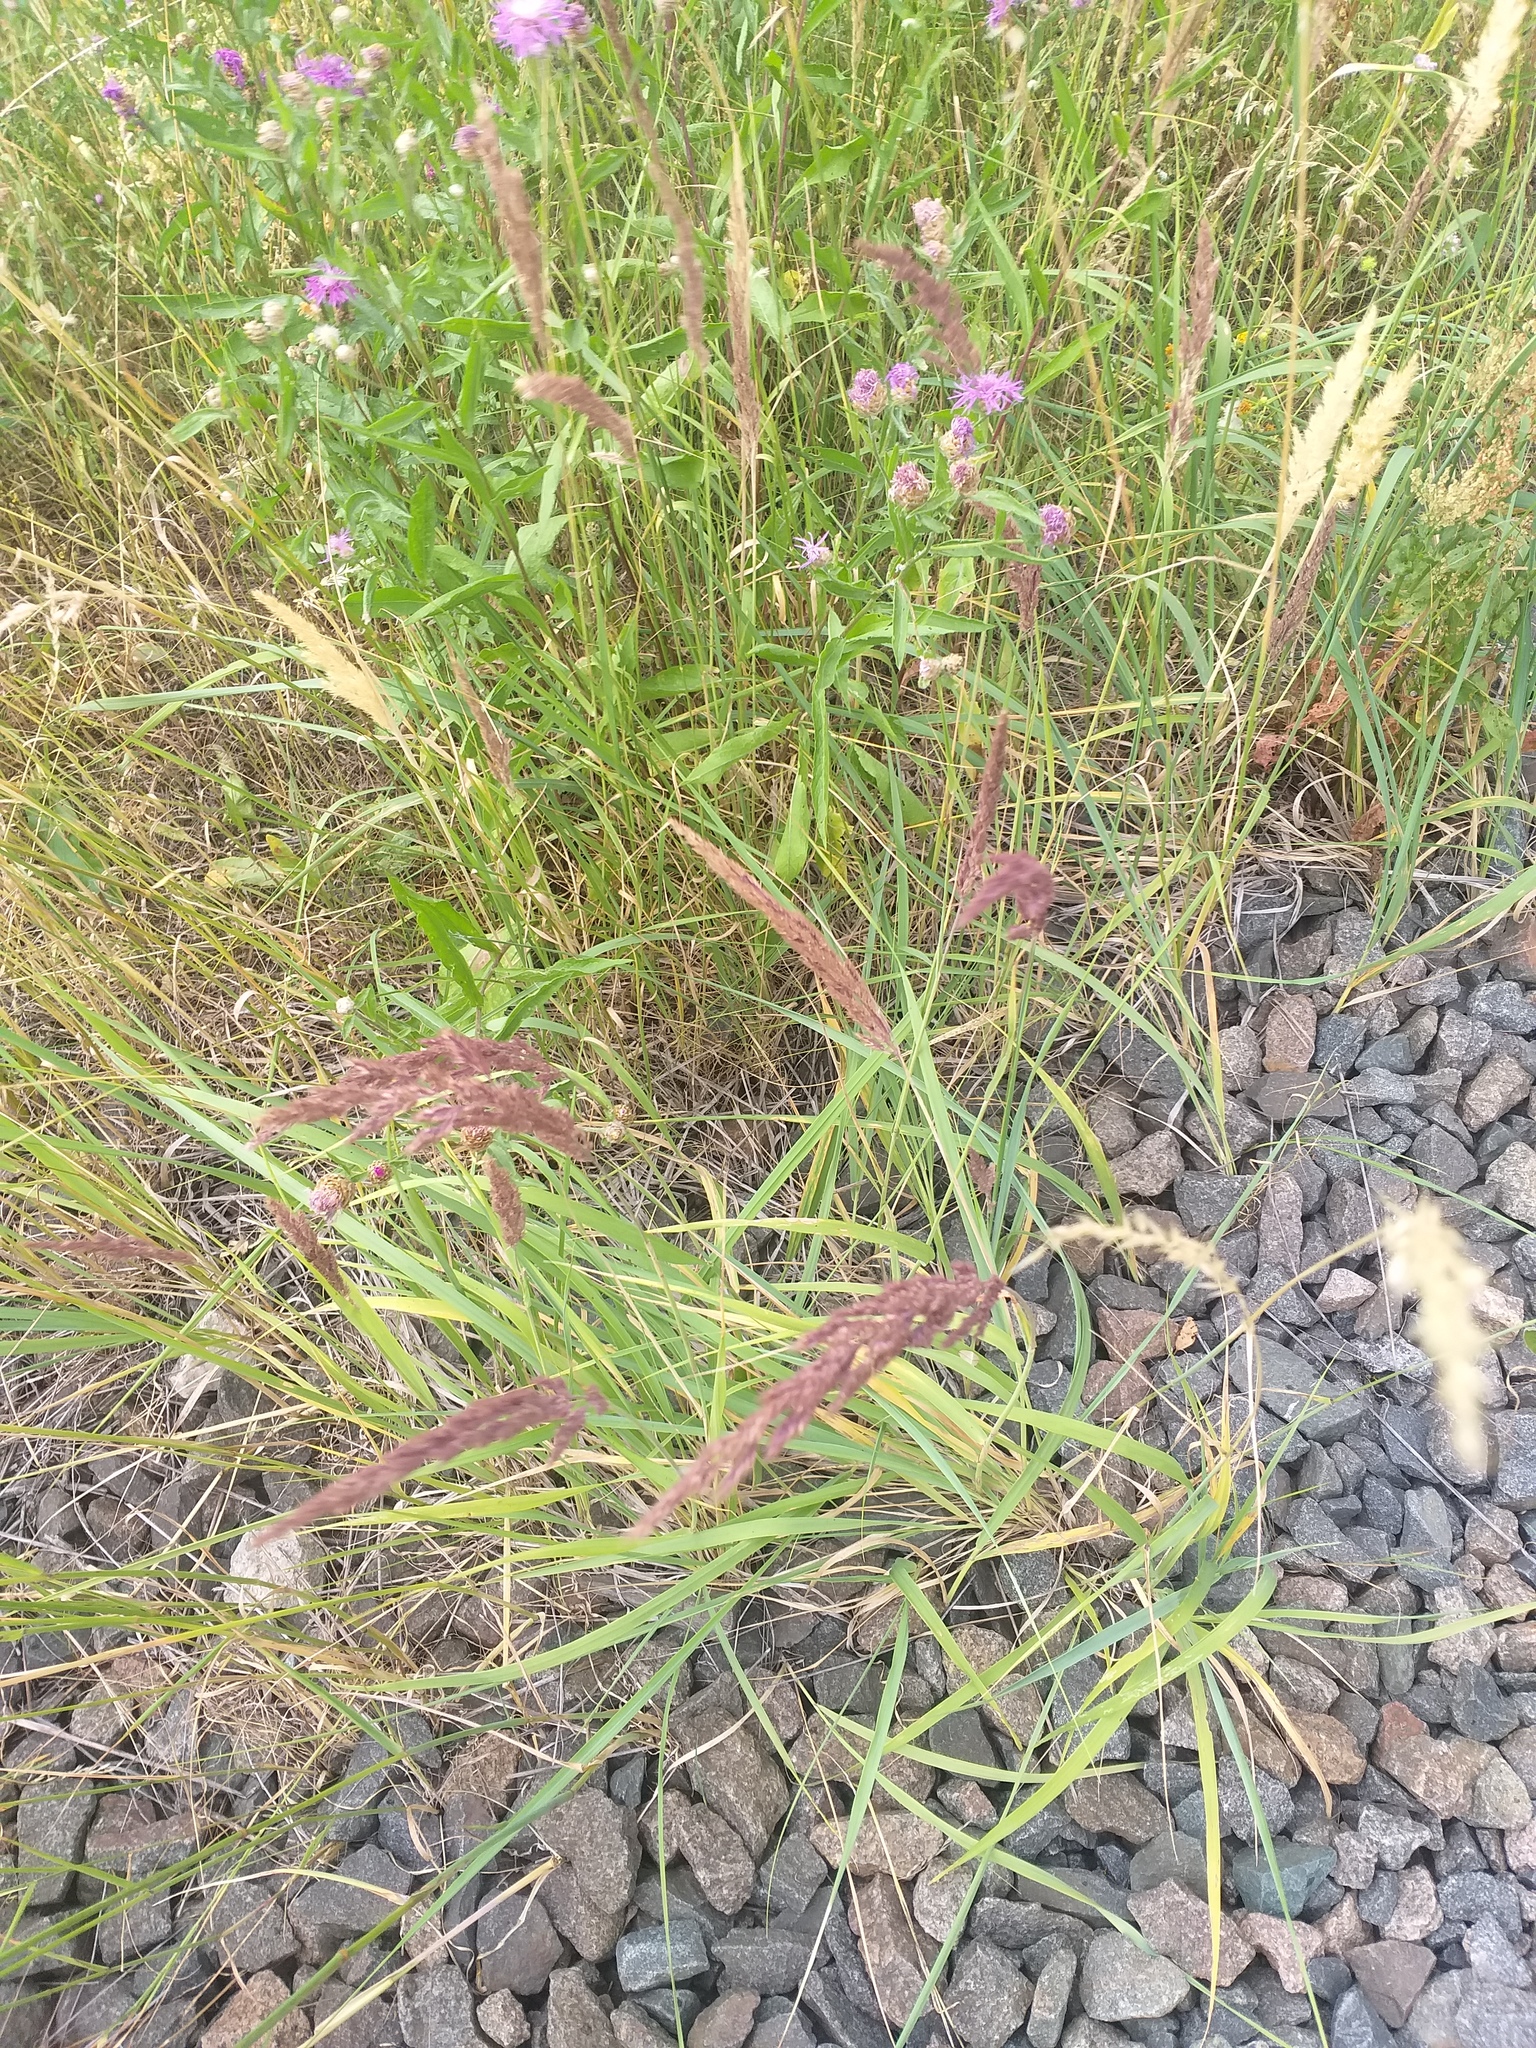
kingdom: Plantae
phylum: Tracheophyta
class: Liliopsida
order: Poales
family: Poaceae
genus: Calamagrostis
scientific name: Calamagrostis epigejos
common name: Wood small-reed
